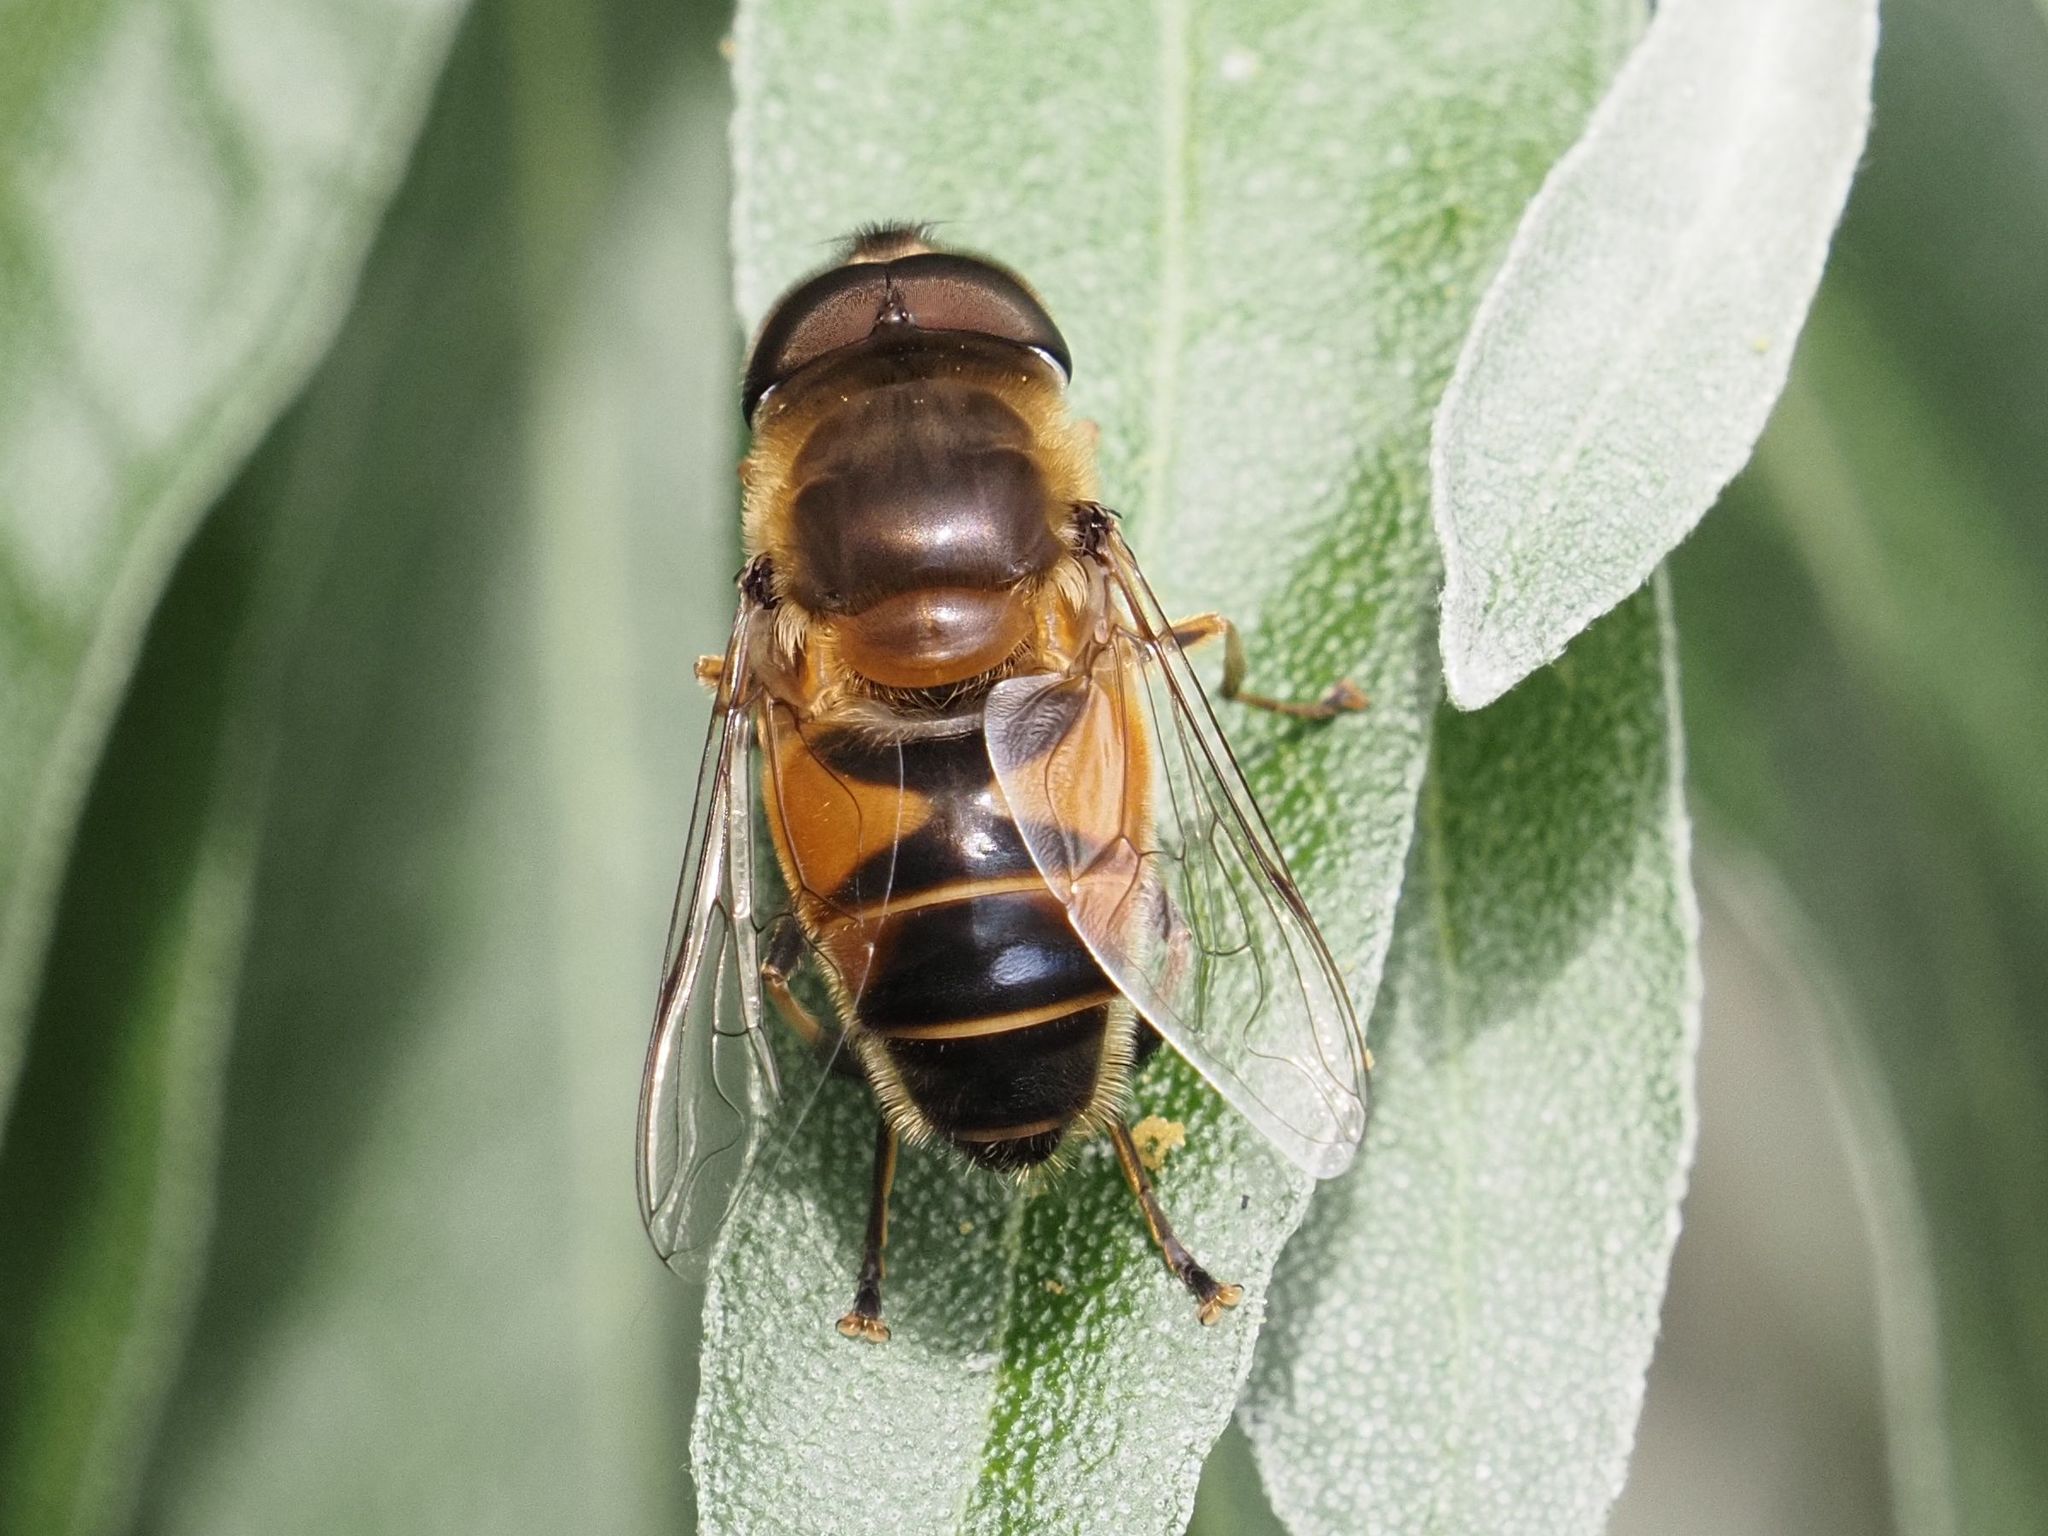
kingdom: Animalia
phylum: Arthropoda
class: Insecta
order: Diptera
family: Syrphidae
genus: Eristalis
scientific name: Eristalis pertinax
